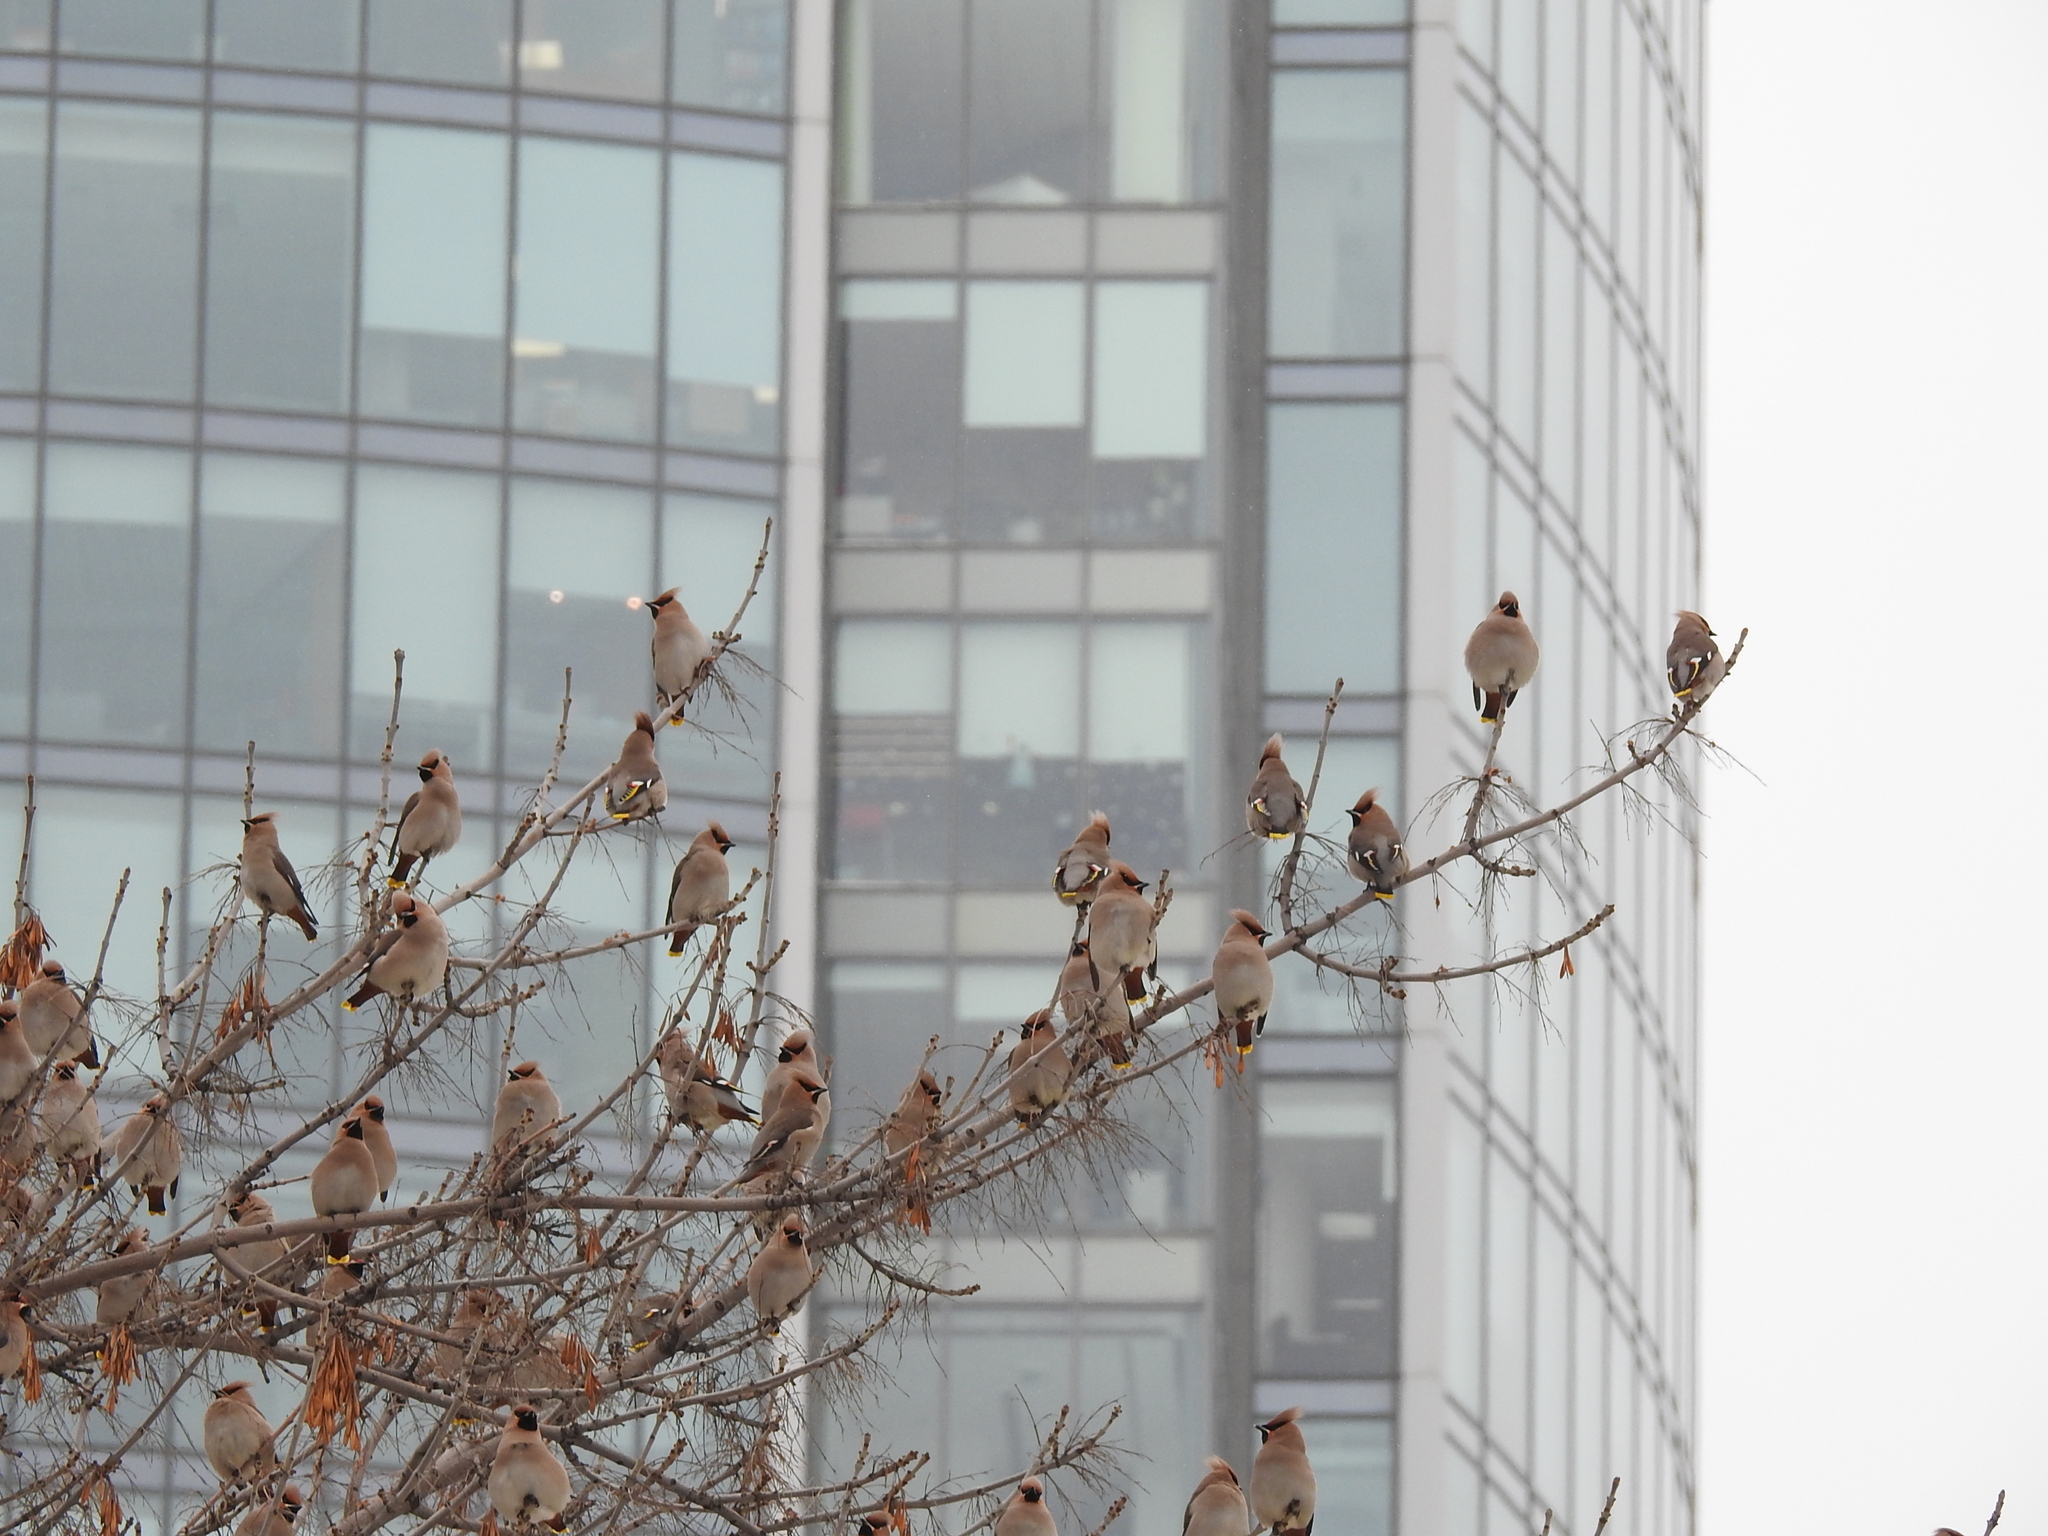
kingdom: Animalia
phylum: Chordata
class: Aves
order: Passeriformes
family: Bombycillidae
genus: Bombycilla
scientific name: Bombycilla garrulus
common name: Bohemian waxwing
